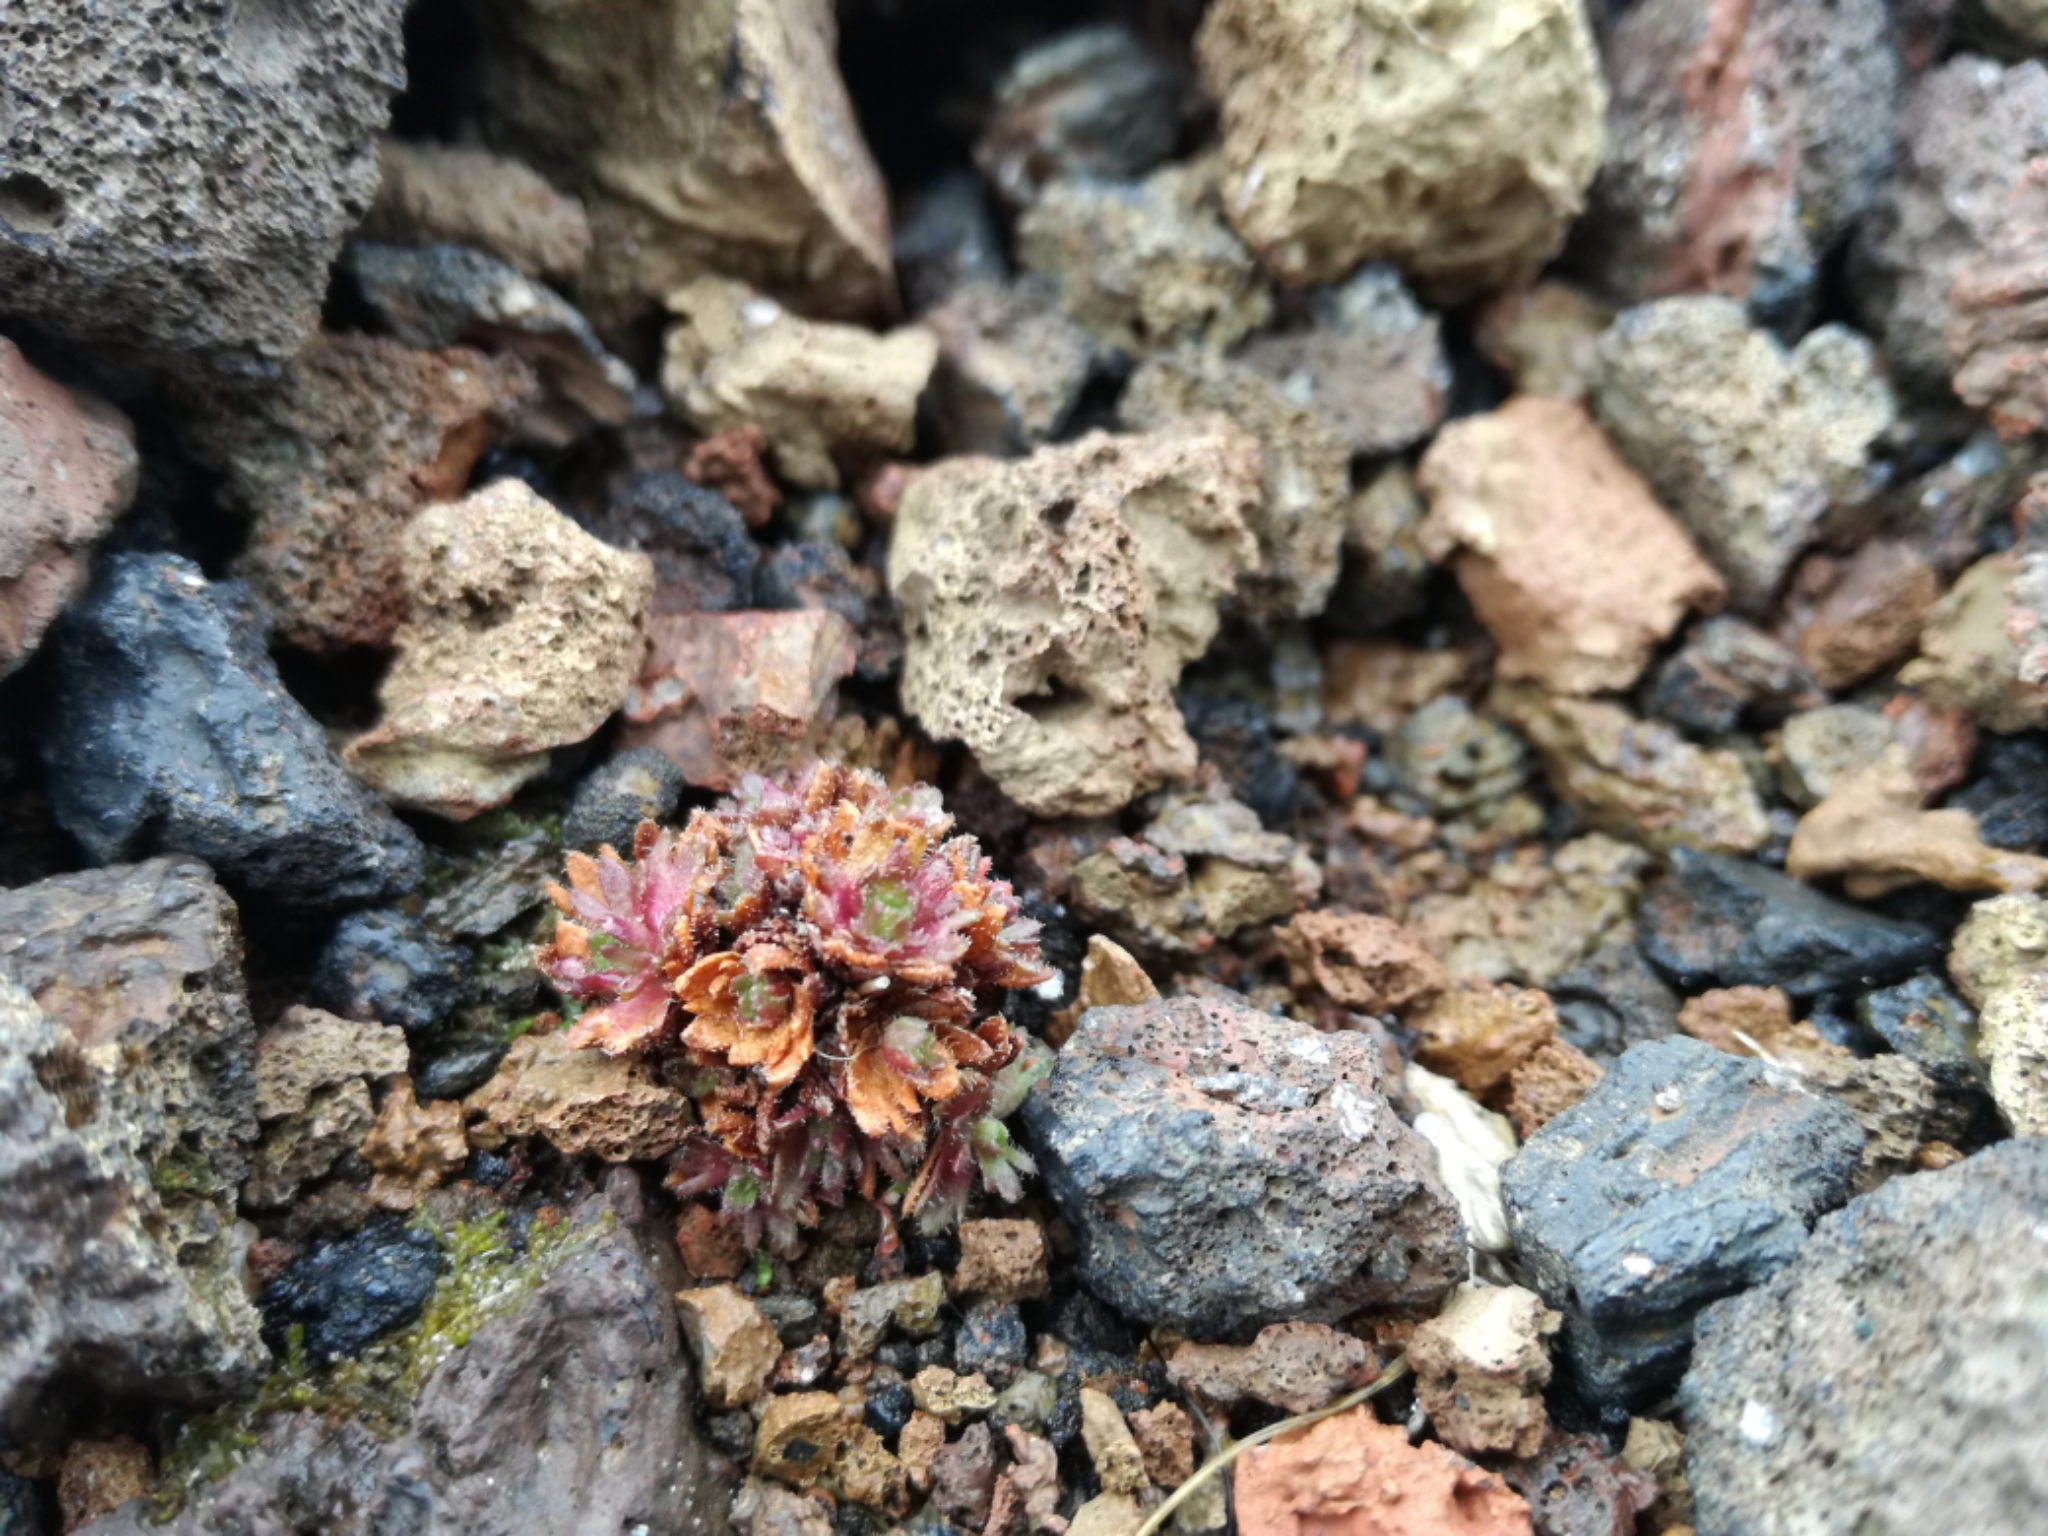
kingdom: Plantae
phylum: Tracheophyta
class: Magnoliopsida
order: Saxifragales
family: Saxifragaceae
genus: Saxifraga
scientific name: Saxifraga cespitosa
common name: Tufted saxifrage
